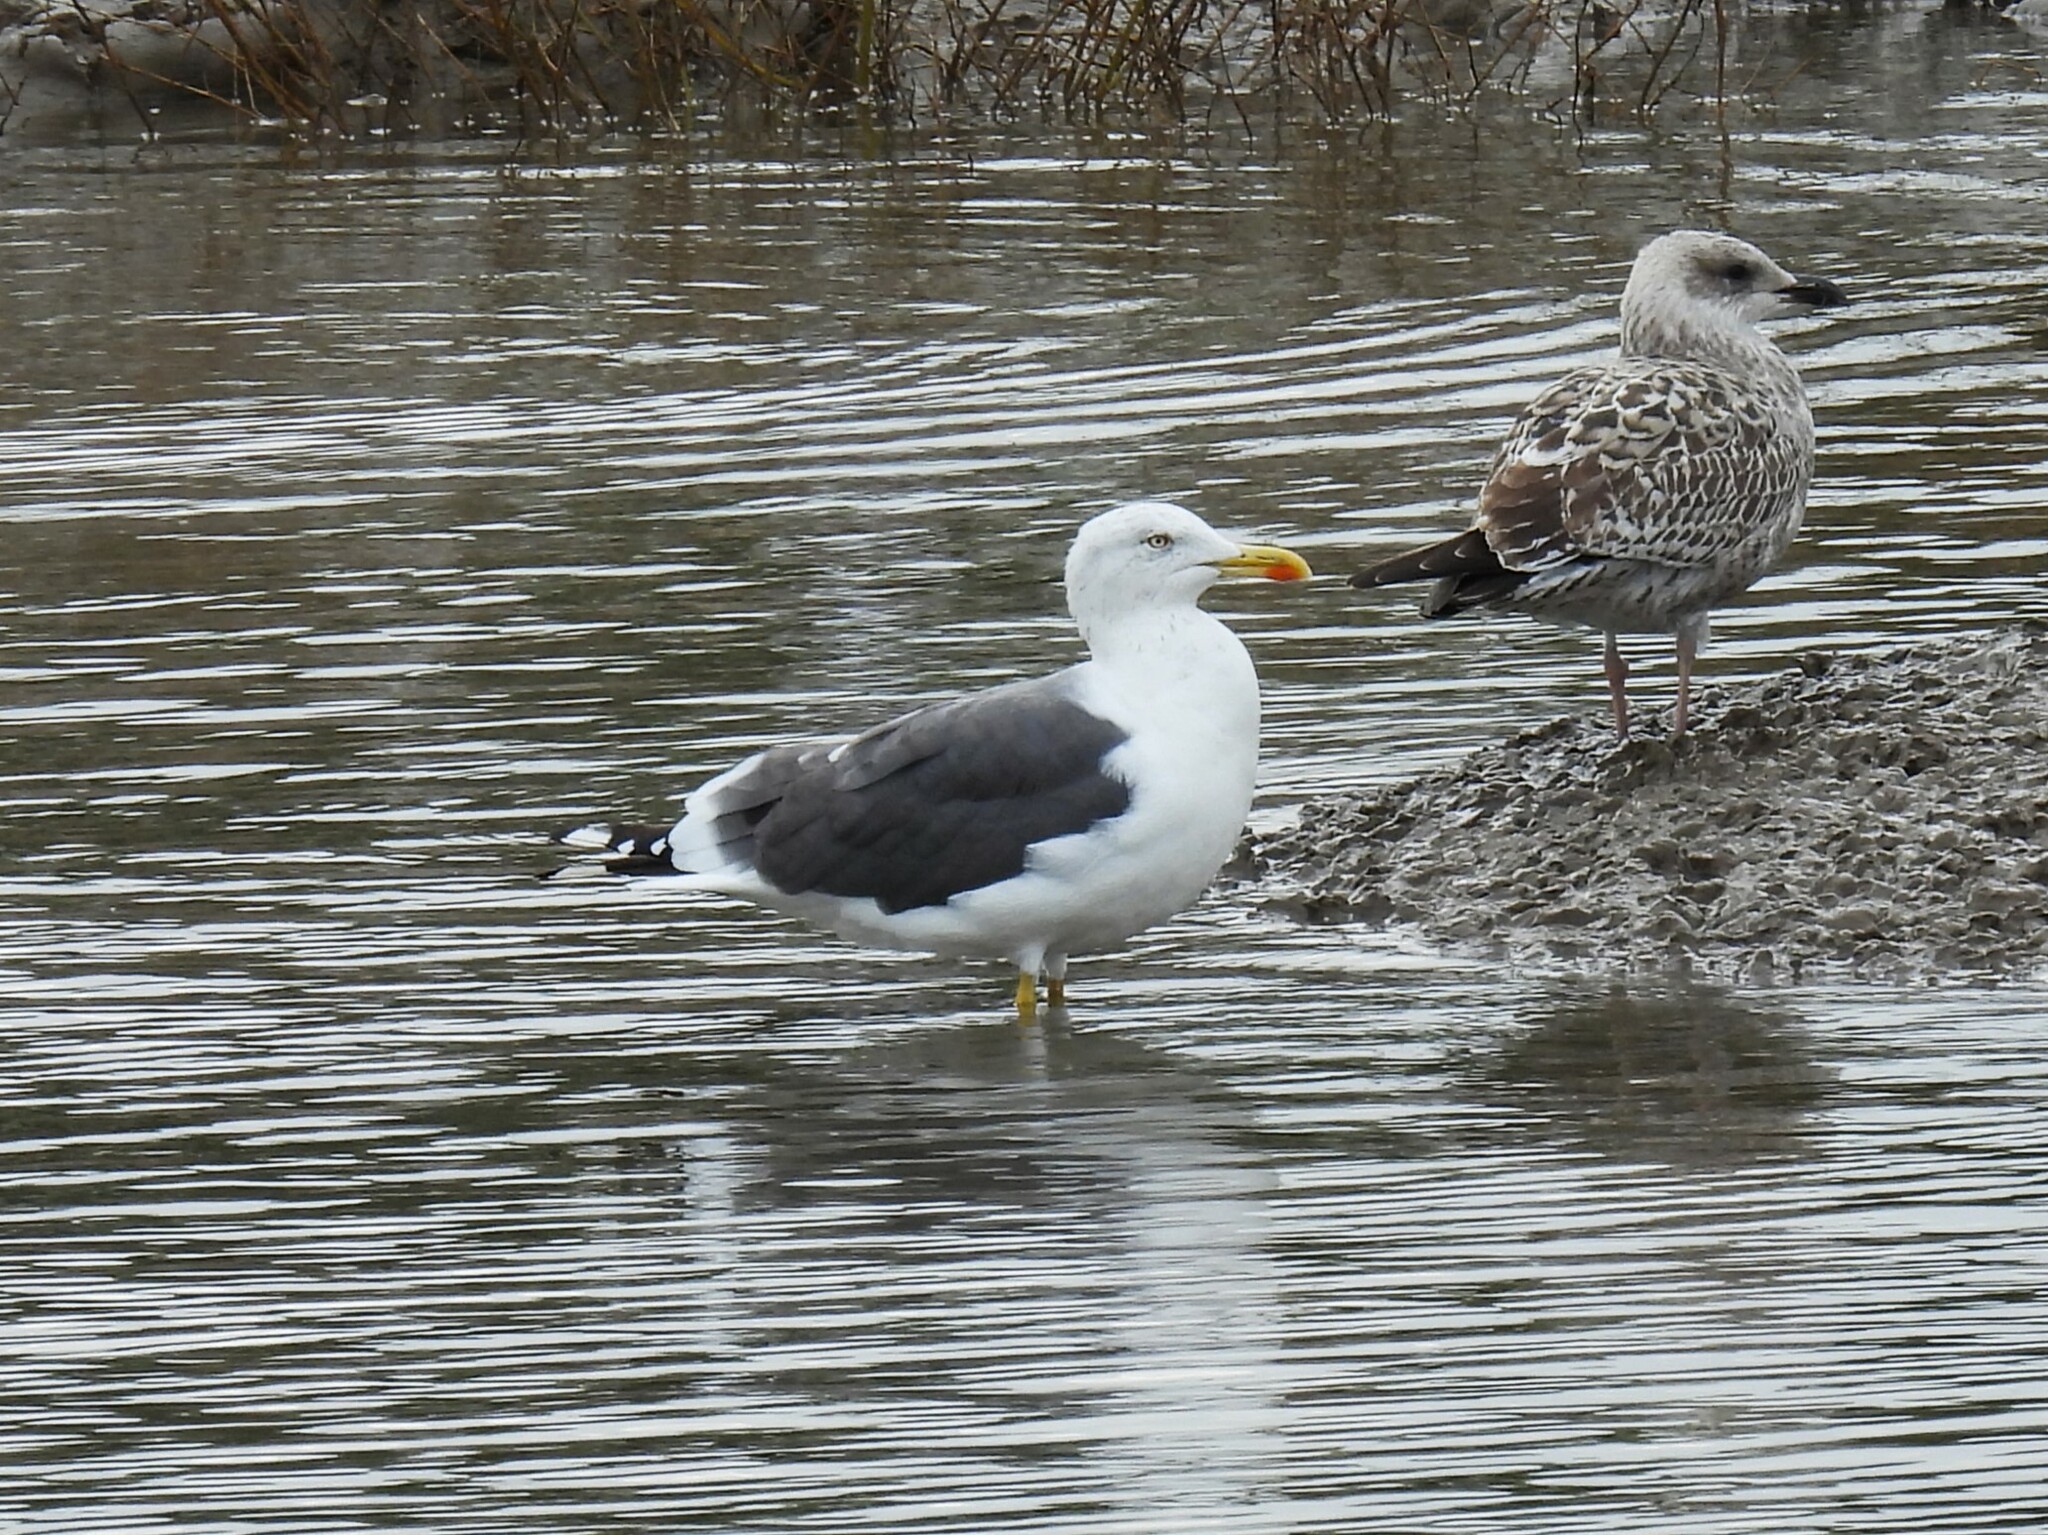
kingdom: Animalia
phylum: Chordata
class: Aves
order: Charadriiformes
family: Laridae
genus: Larus
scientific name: Larus fuscus
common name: Lesser black-backed gull
